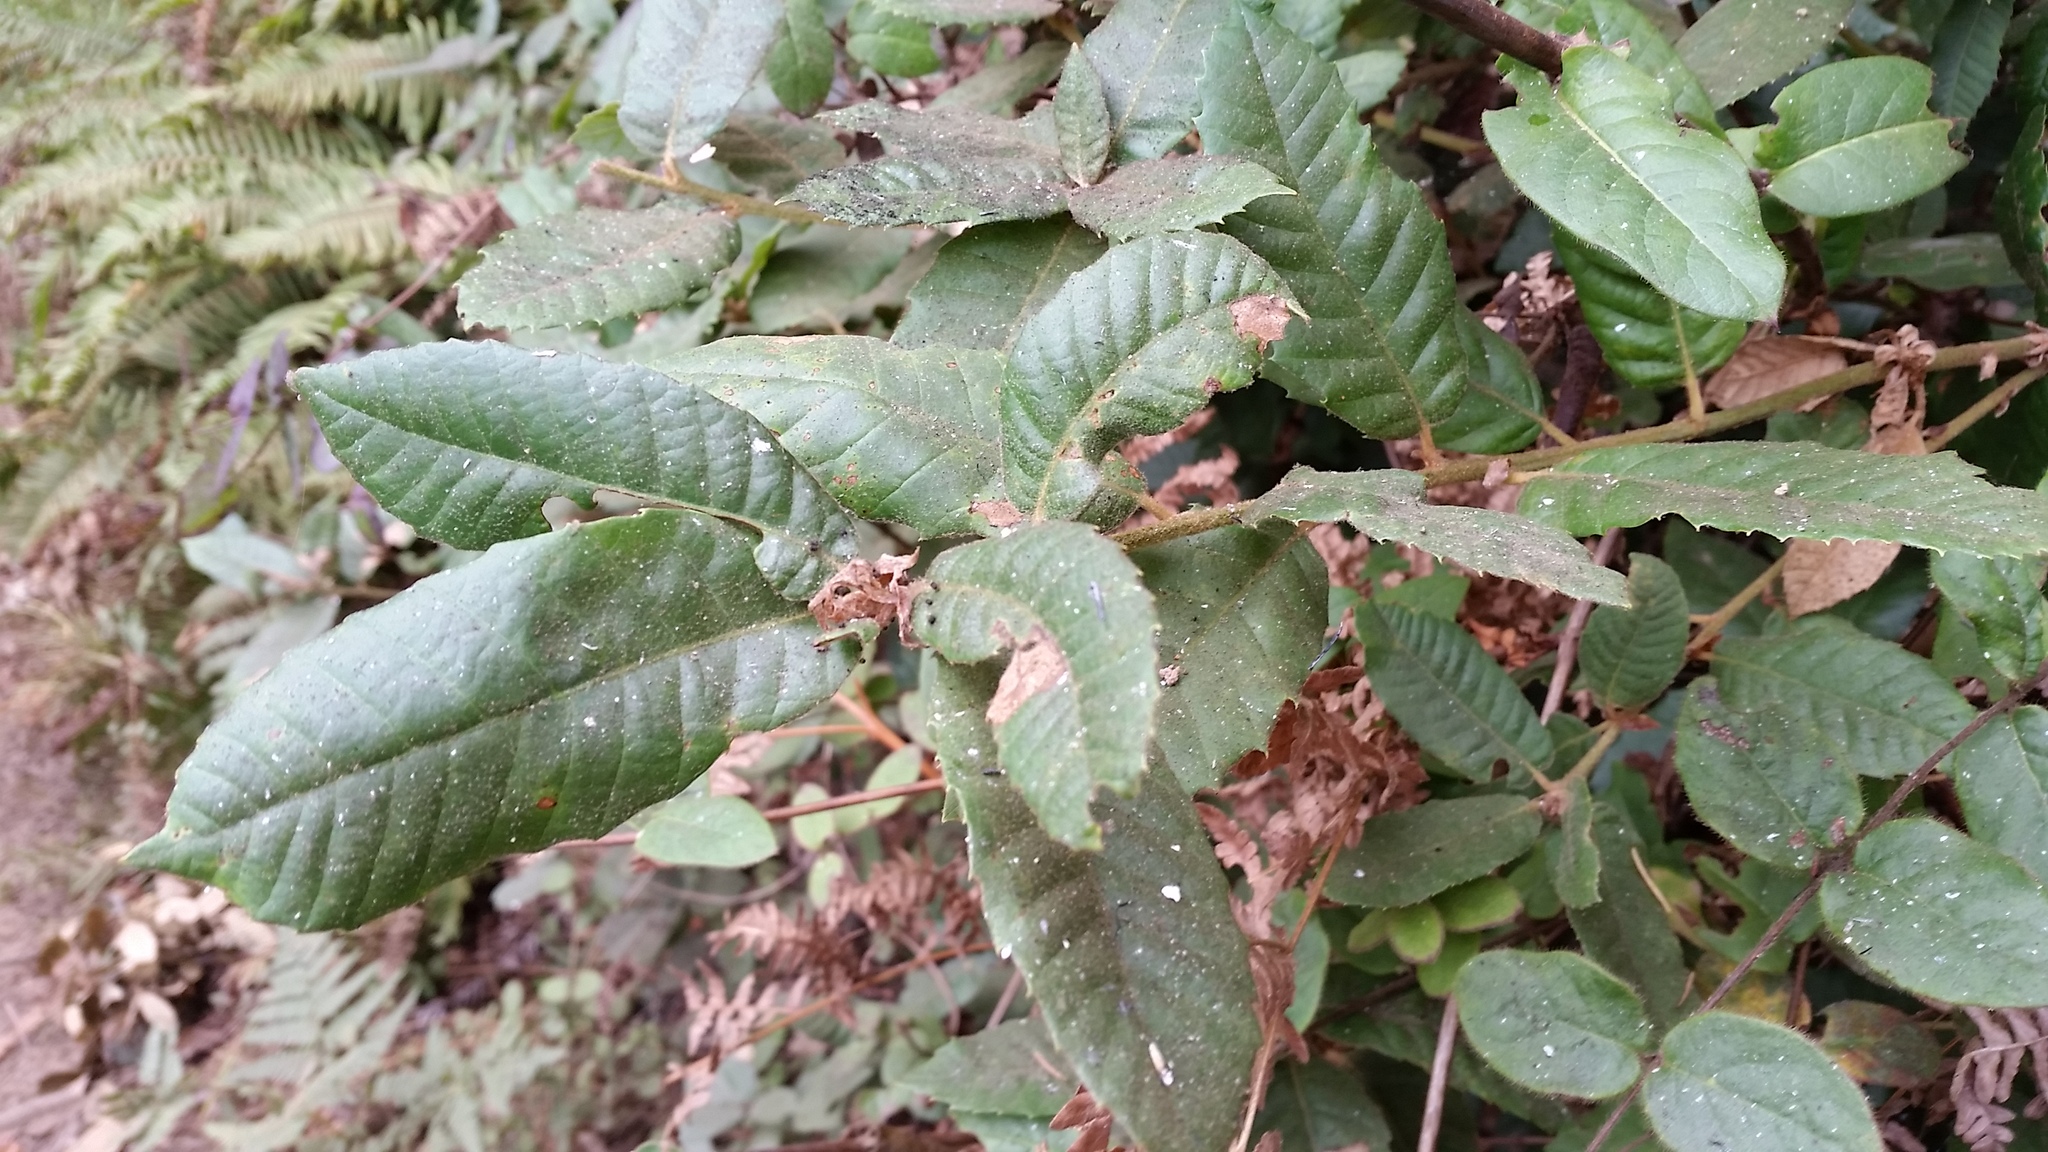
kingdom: Plantae
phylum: Tracheophyta
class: Magnoliopsida
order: Fagales
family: Fagaceae
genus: Notholithocarpus
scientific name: Notholithocarpus densiflorus
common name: Tan bark oak
